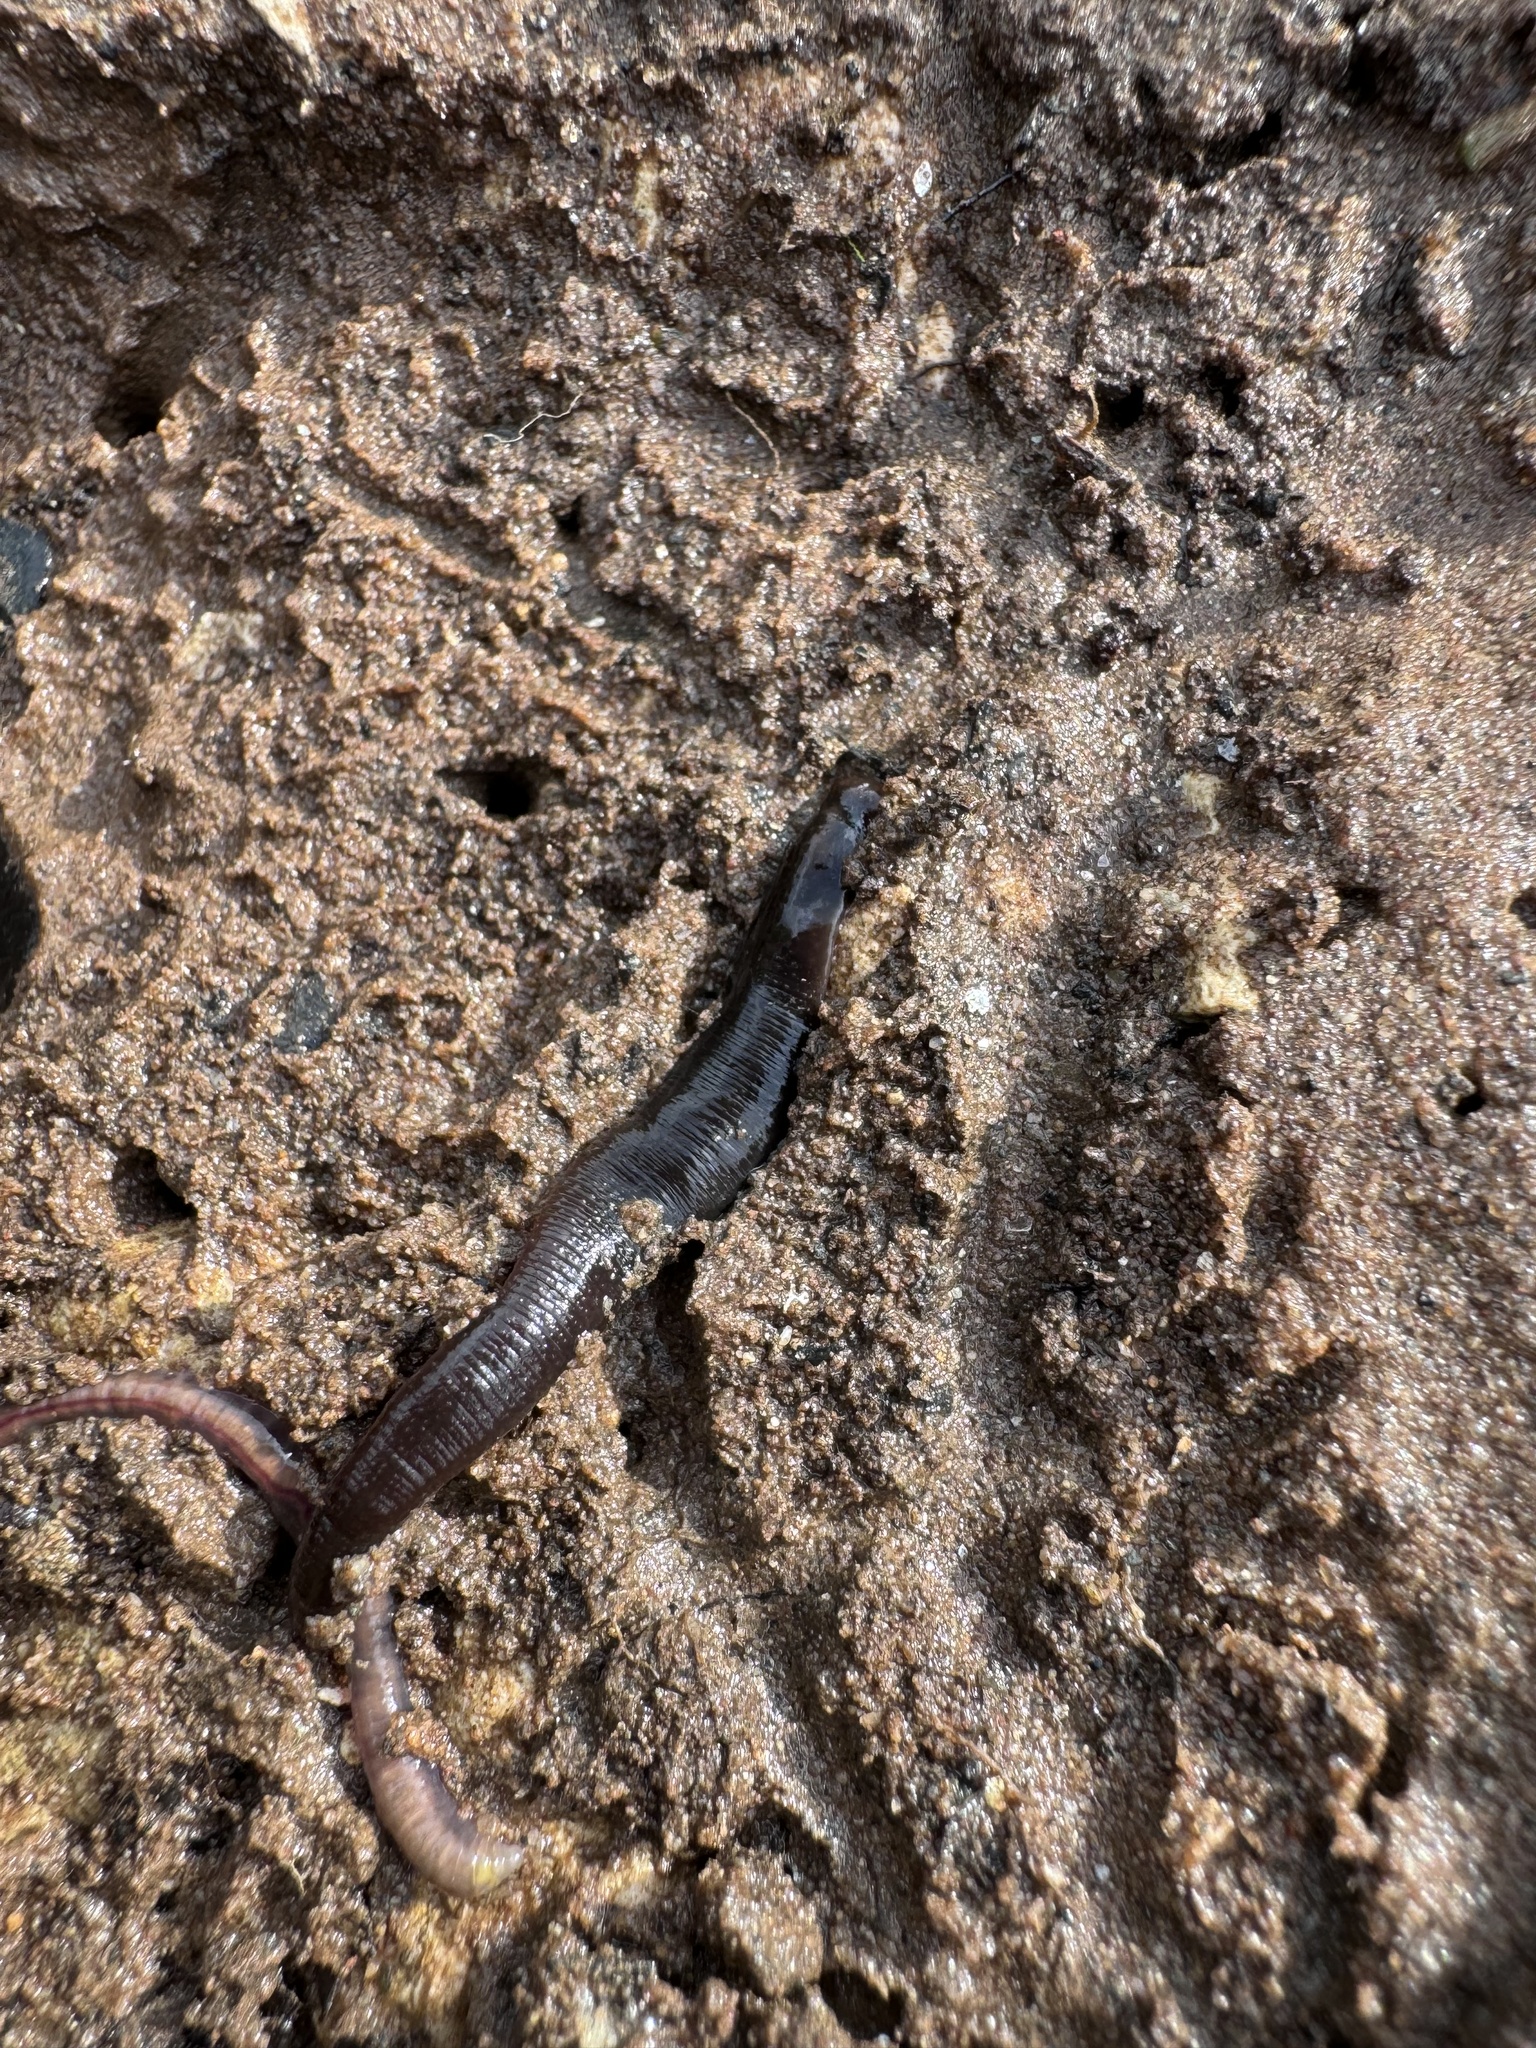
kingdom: Animalia
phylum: Annelida
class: Clitellata
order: Arhynchobdellida
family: Haemopidae
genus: Haemopis
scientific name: Haemopis sanguisuga
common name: Horse leech
